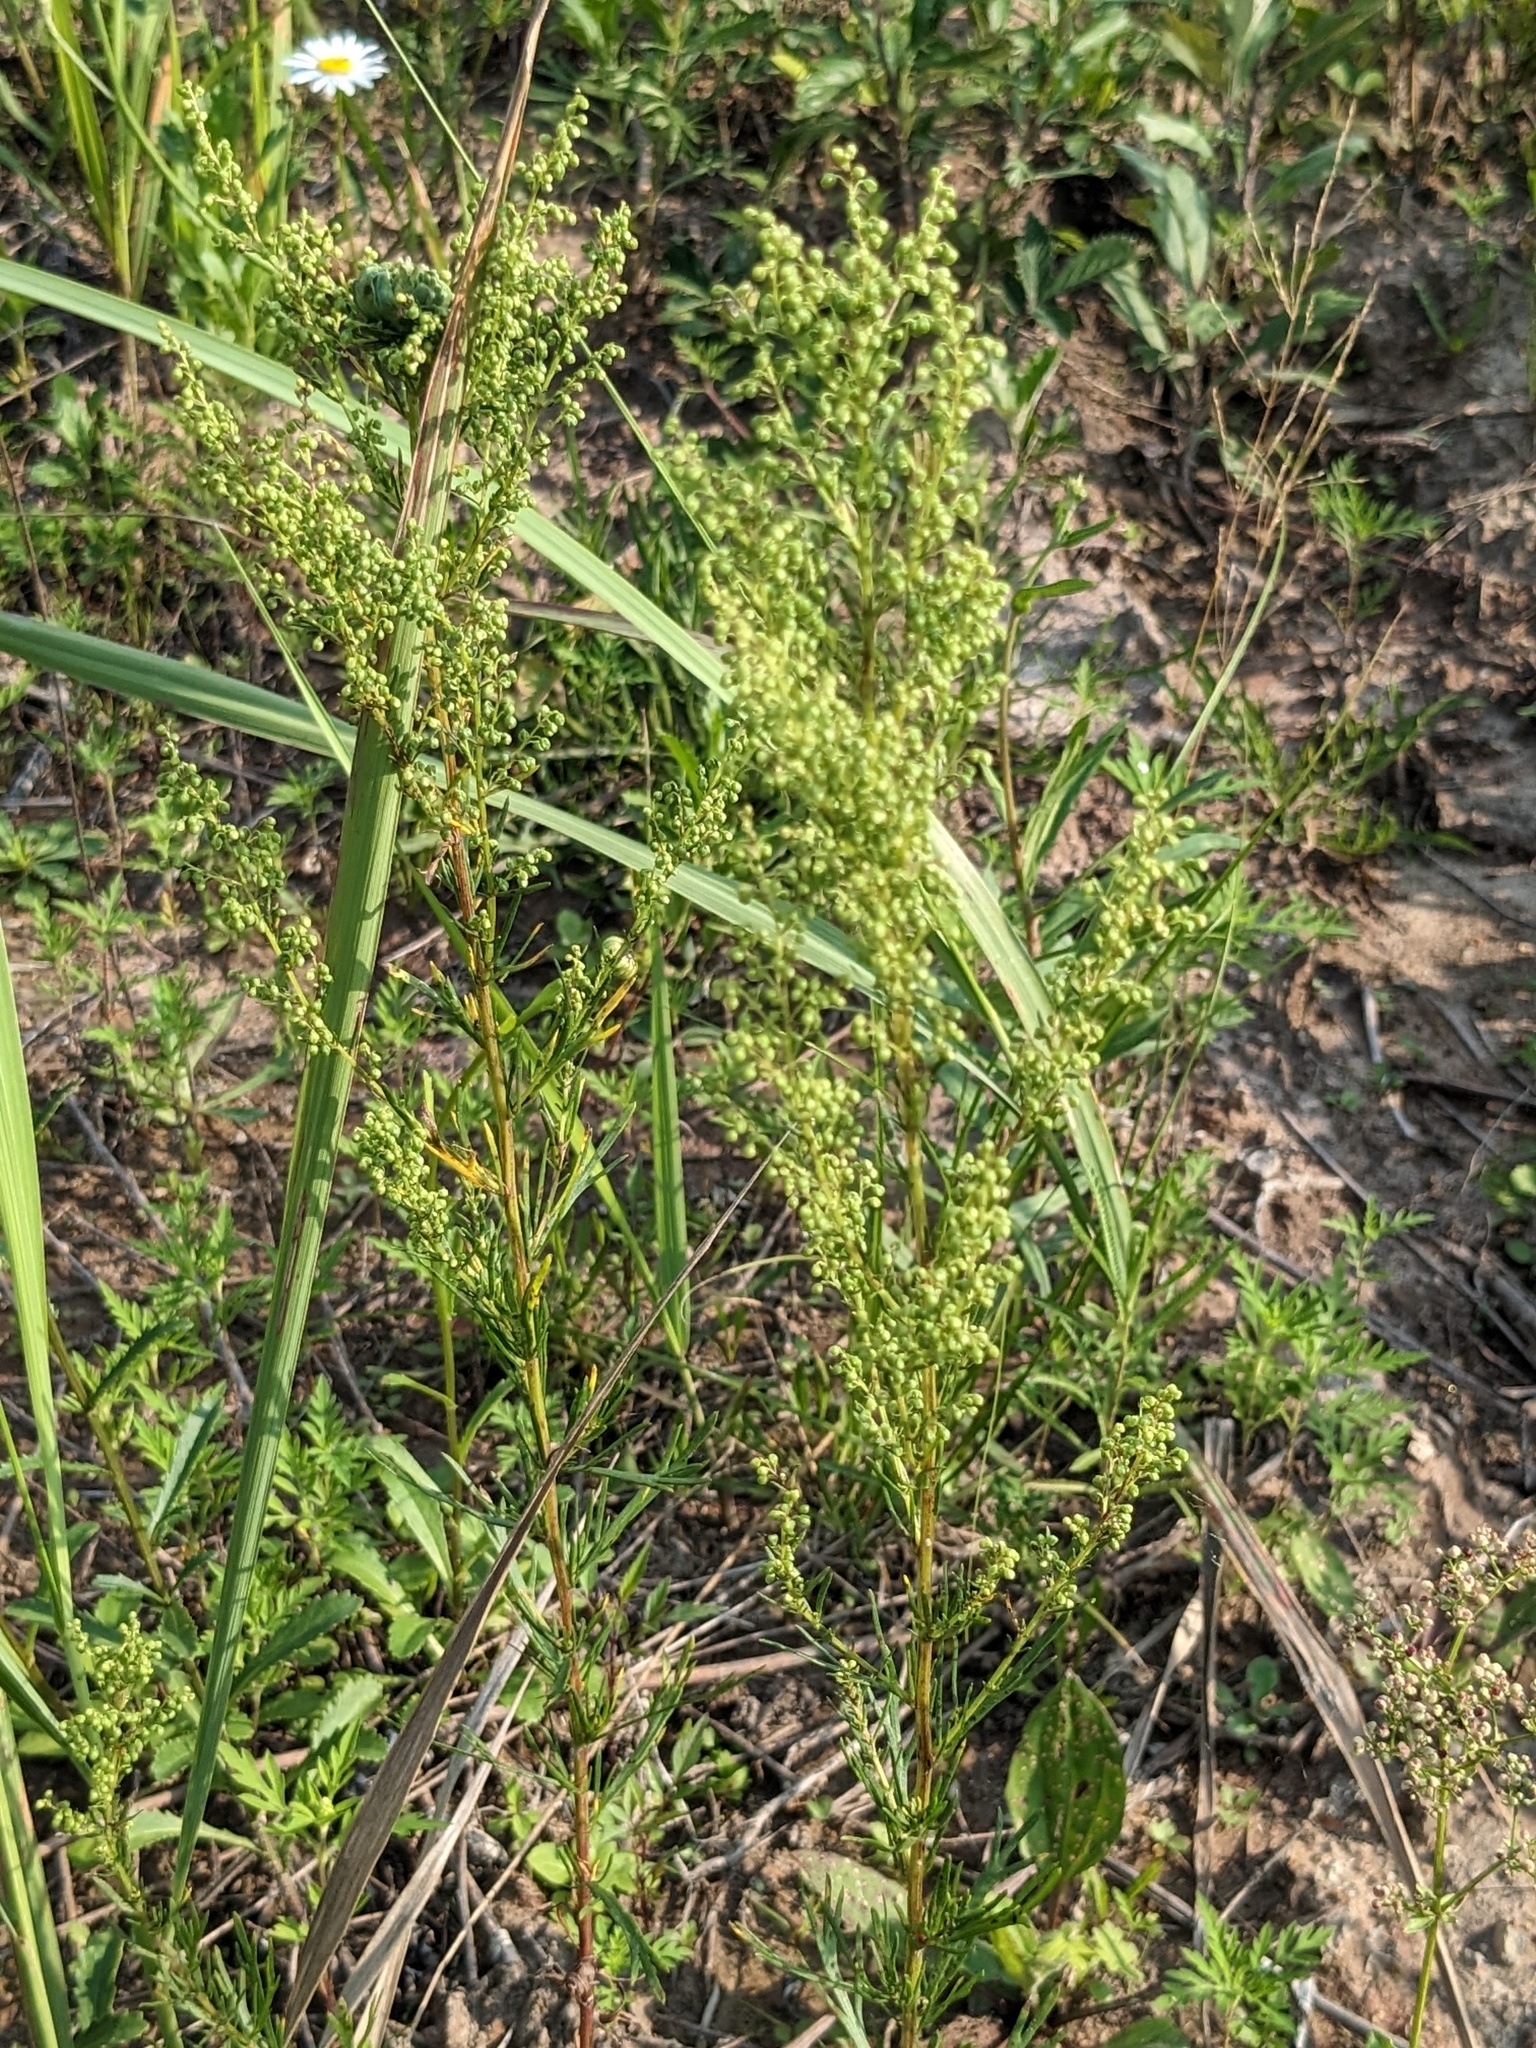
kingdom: Plantae
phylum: Tracheophyta
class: Magnoliopsida
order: Asterales
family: Asteraceae
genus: Artemisia
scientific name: Artemisia manshurica
